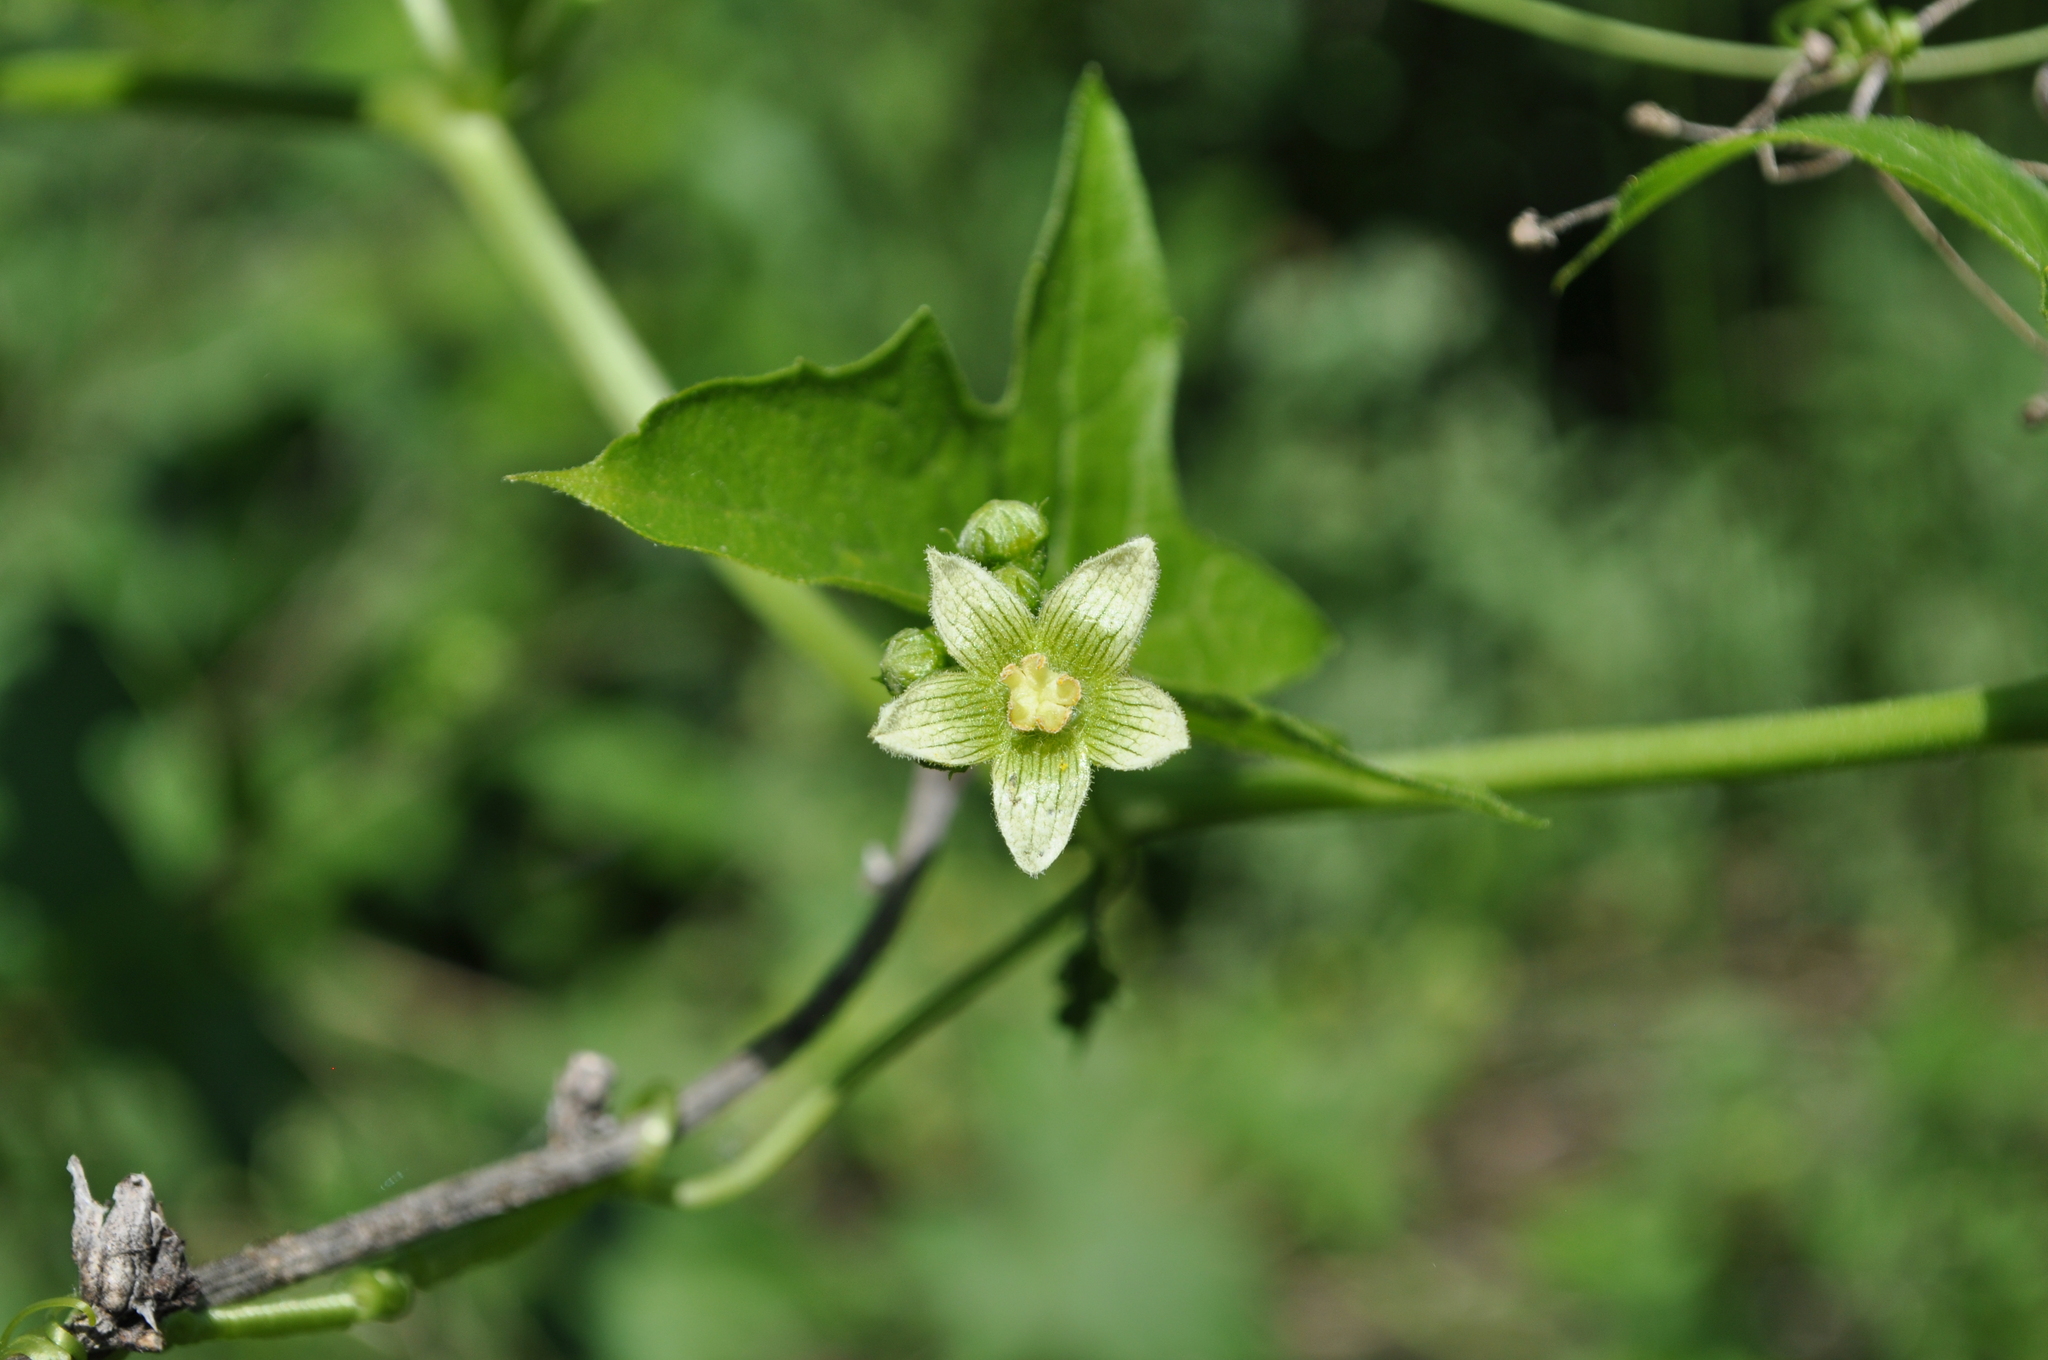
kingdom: Plantae
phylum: Tracheophyta
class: Magnoliopsida
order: Cucurbitales
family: Cucurbitaceae
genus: Bryonia
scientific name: Bryonia dioica
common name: White bryony
